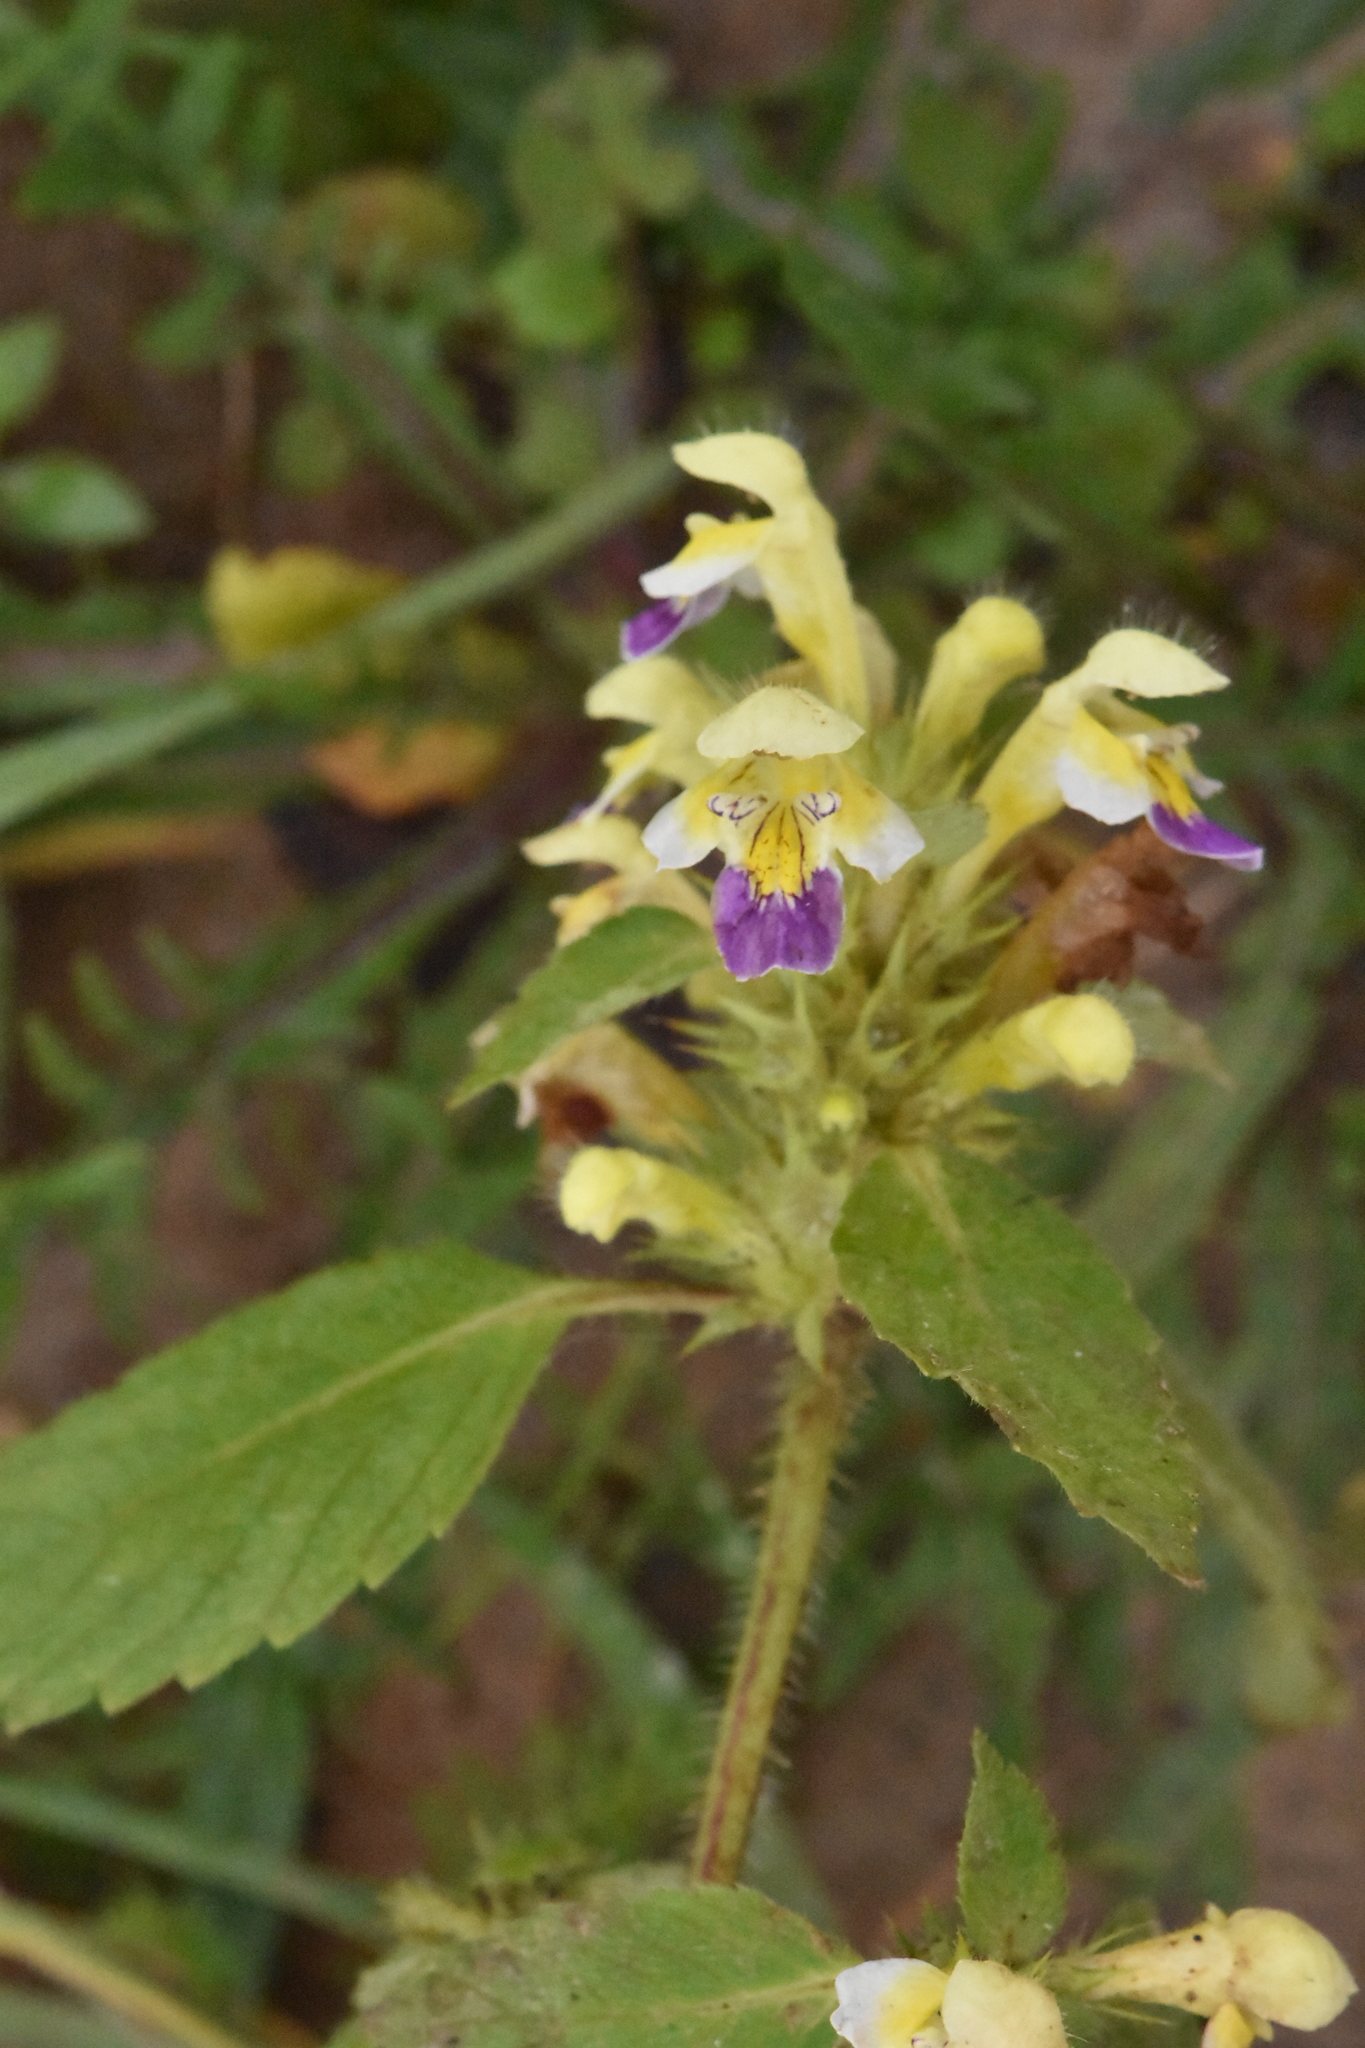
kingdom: Plantae
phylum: Tracheophyta
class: Magnoliopsida
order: Lamiales
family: Lamiaceae
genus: Galeopsis
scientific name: Galeopsis speciosa
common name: Large-flowered hemp-nettle
